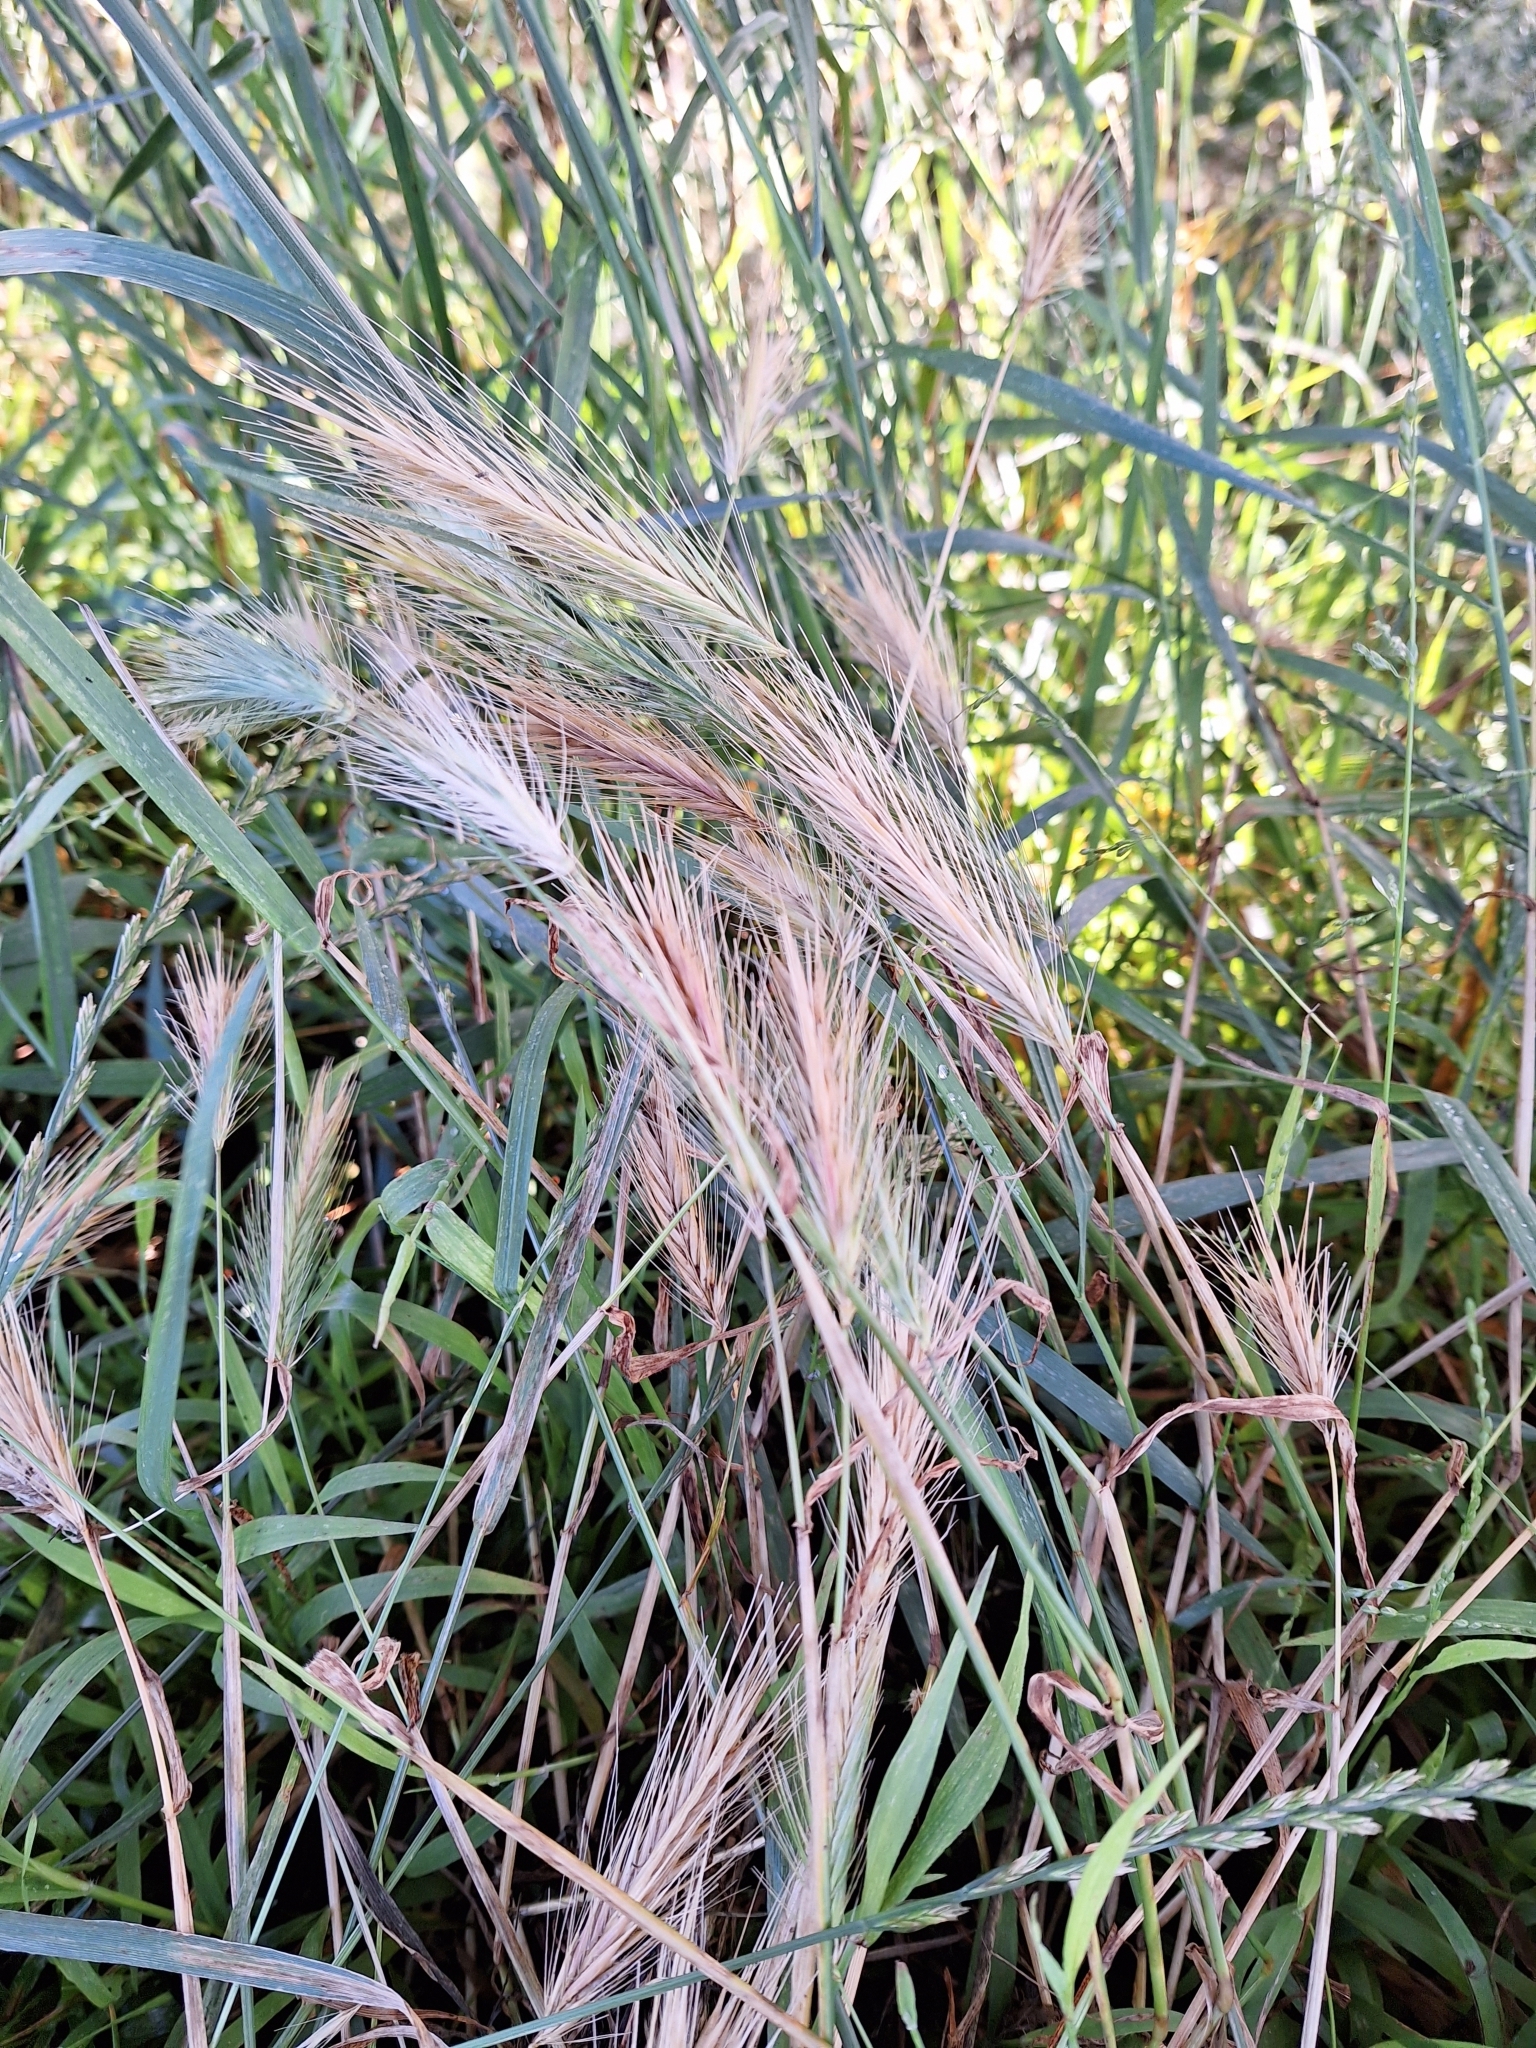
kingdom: Plantae
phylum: Tracheophyta
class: Liliopsida
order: Poales
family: Poaceae
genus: Hordeum
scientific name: Hordeum murinum
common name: Wall barley
